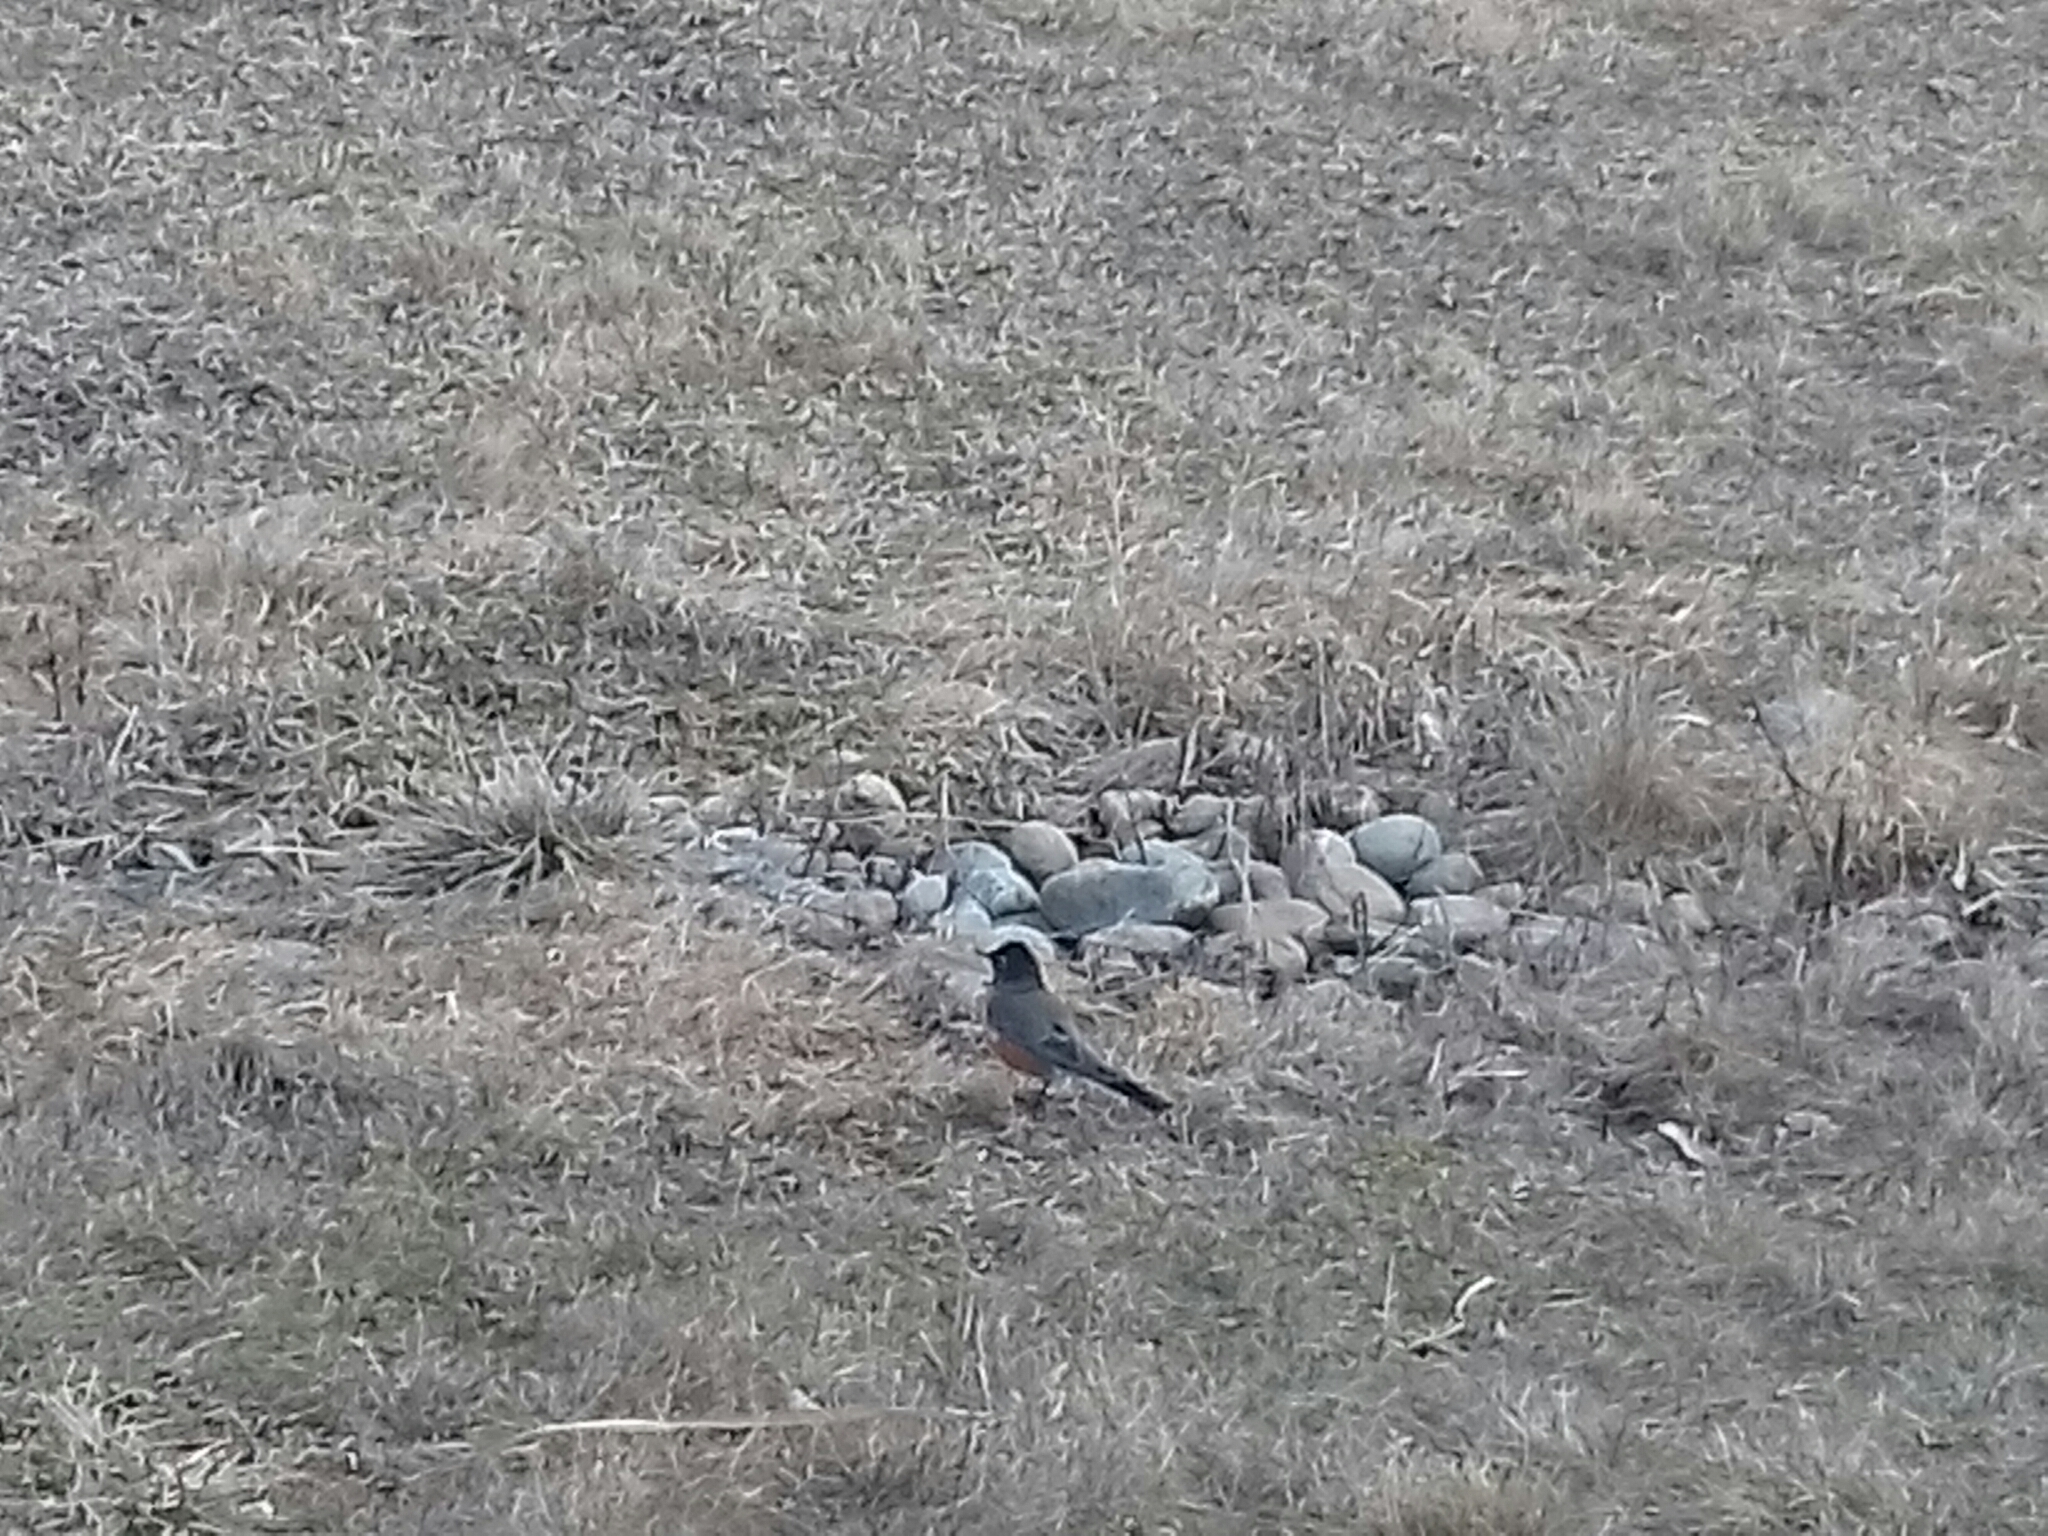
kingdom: Animalia
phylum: Chordata
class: Aves
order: Passeriformes
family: Turdidae
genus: Turdus
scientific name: Turdus migratorius
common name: American robin
